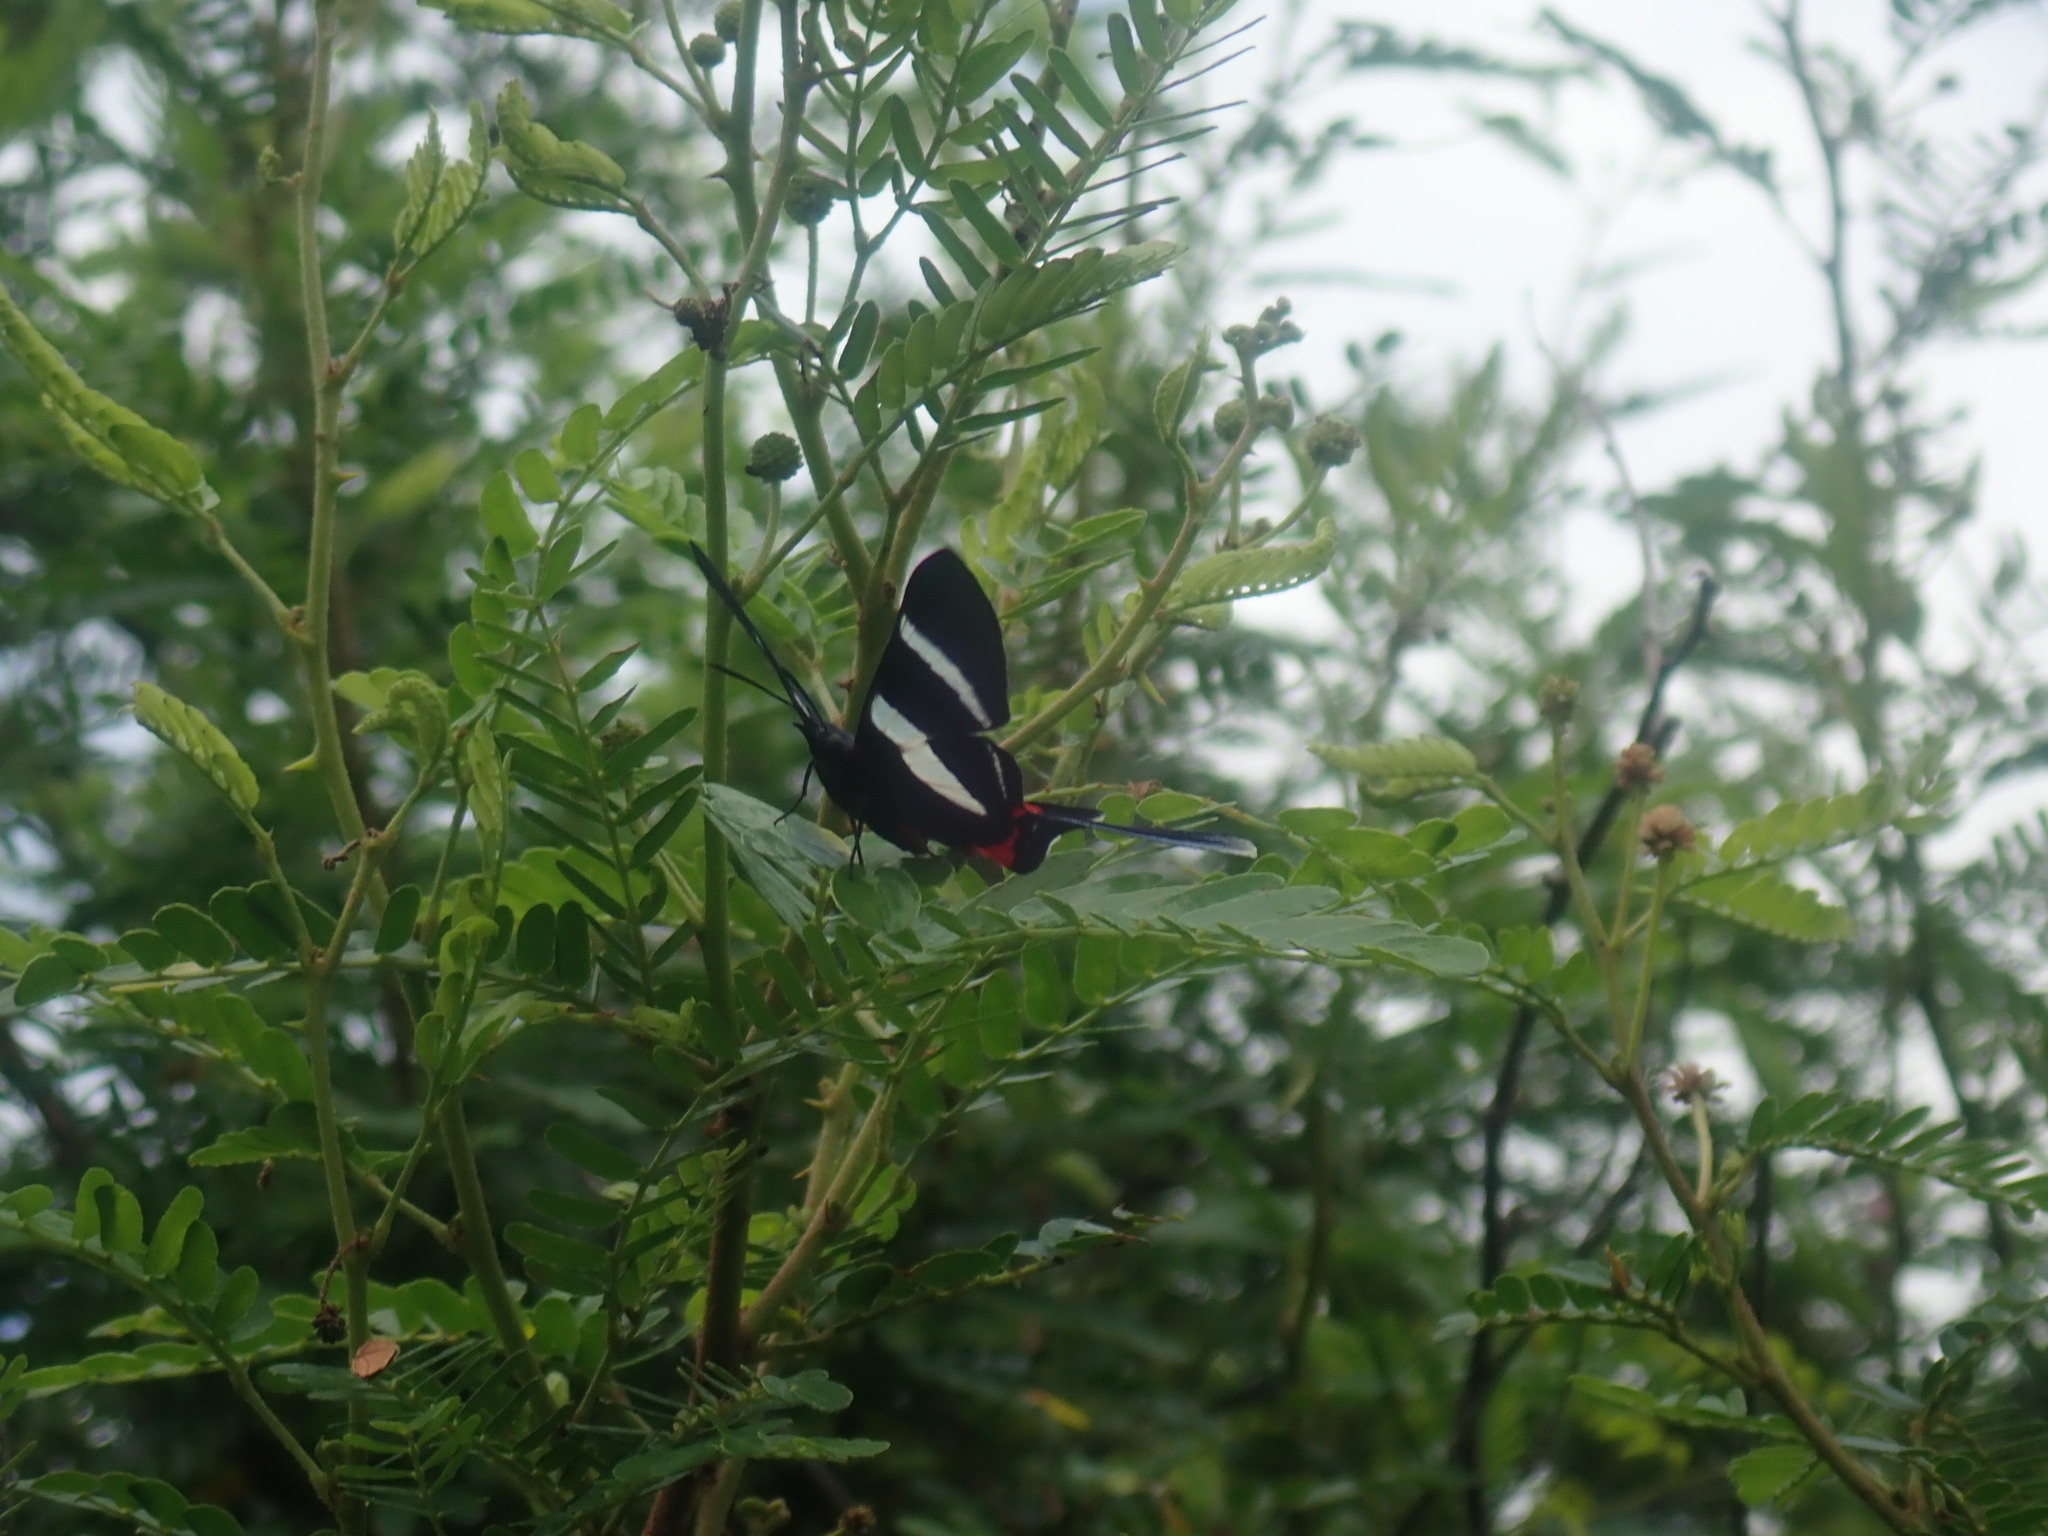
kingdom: Animalia
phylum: Arthropoda
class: Insecta
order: Lepidoptera
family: Riodinidae
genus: Rhetus
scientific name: Rhetus arcius
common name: Long-tailed metalmark
